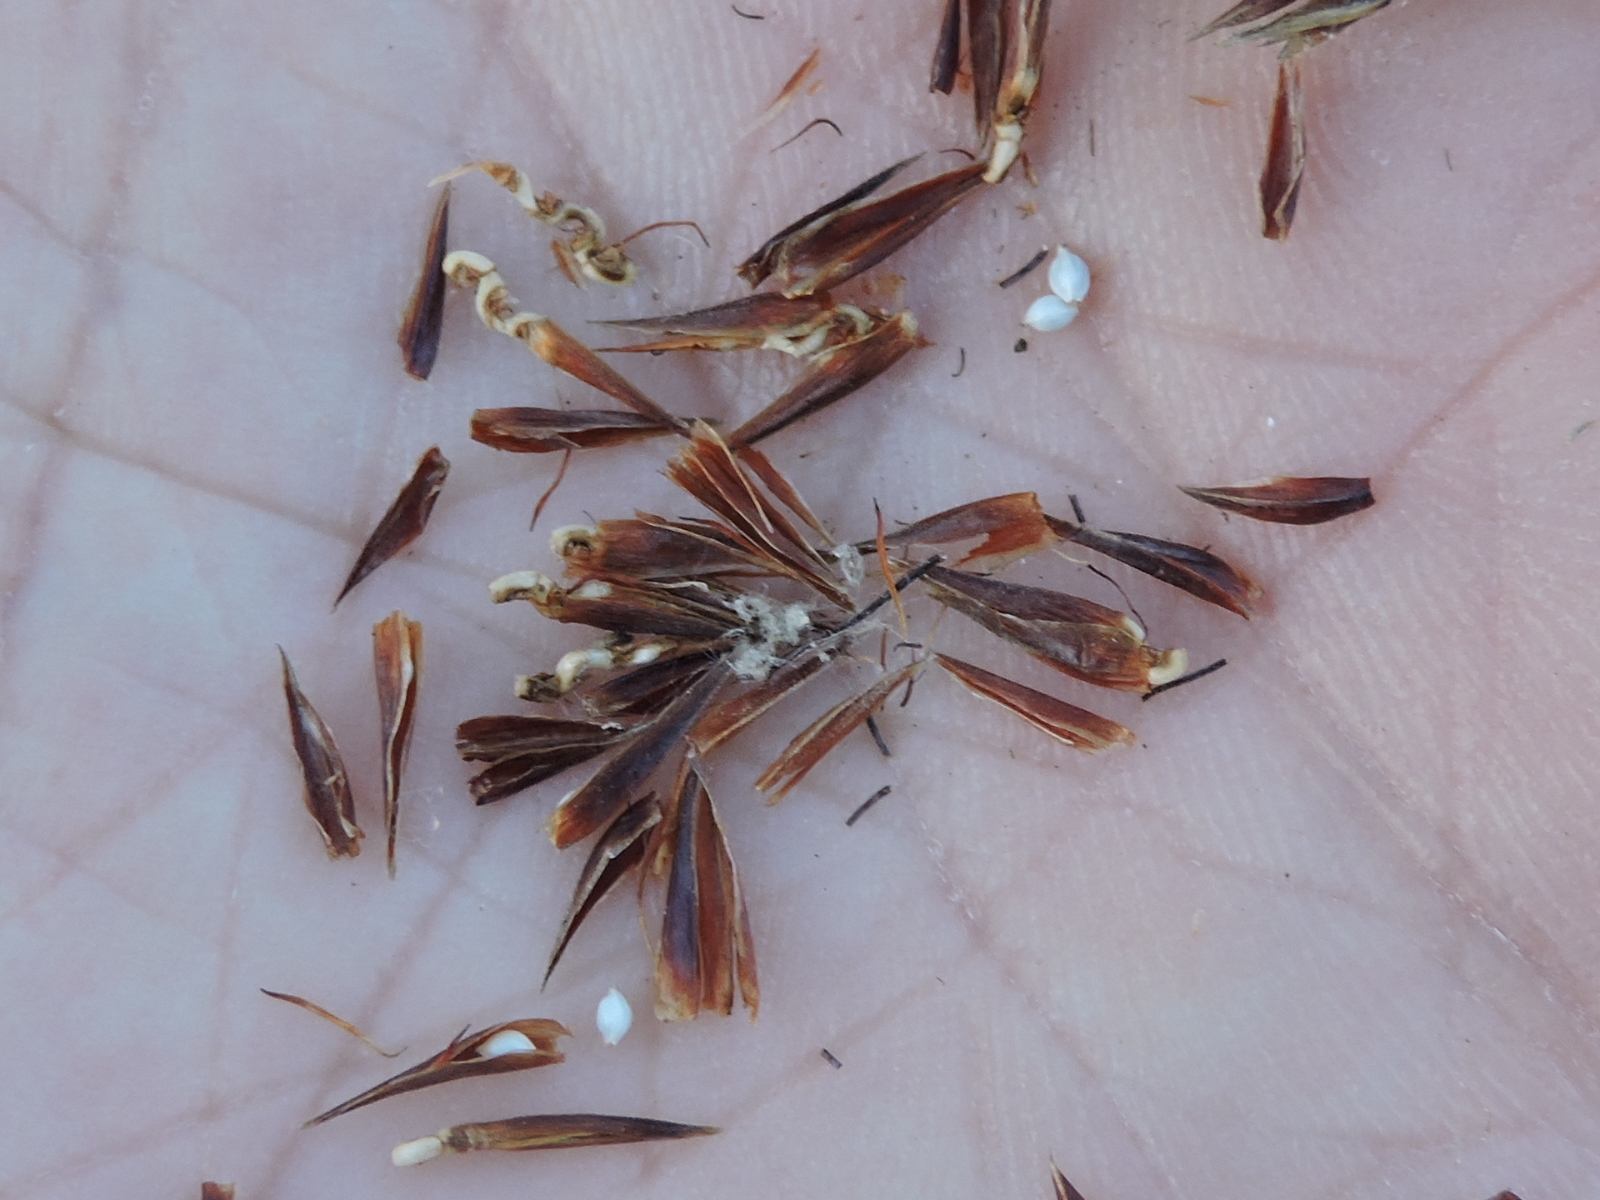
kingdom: Plantae
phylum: Tracheophyta
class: Liliopsida
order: Poales
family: Cyperaceae
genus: Schoenus
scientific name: Schoenus nigricans
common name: Black bog-rush
